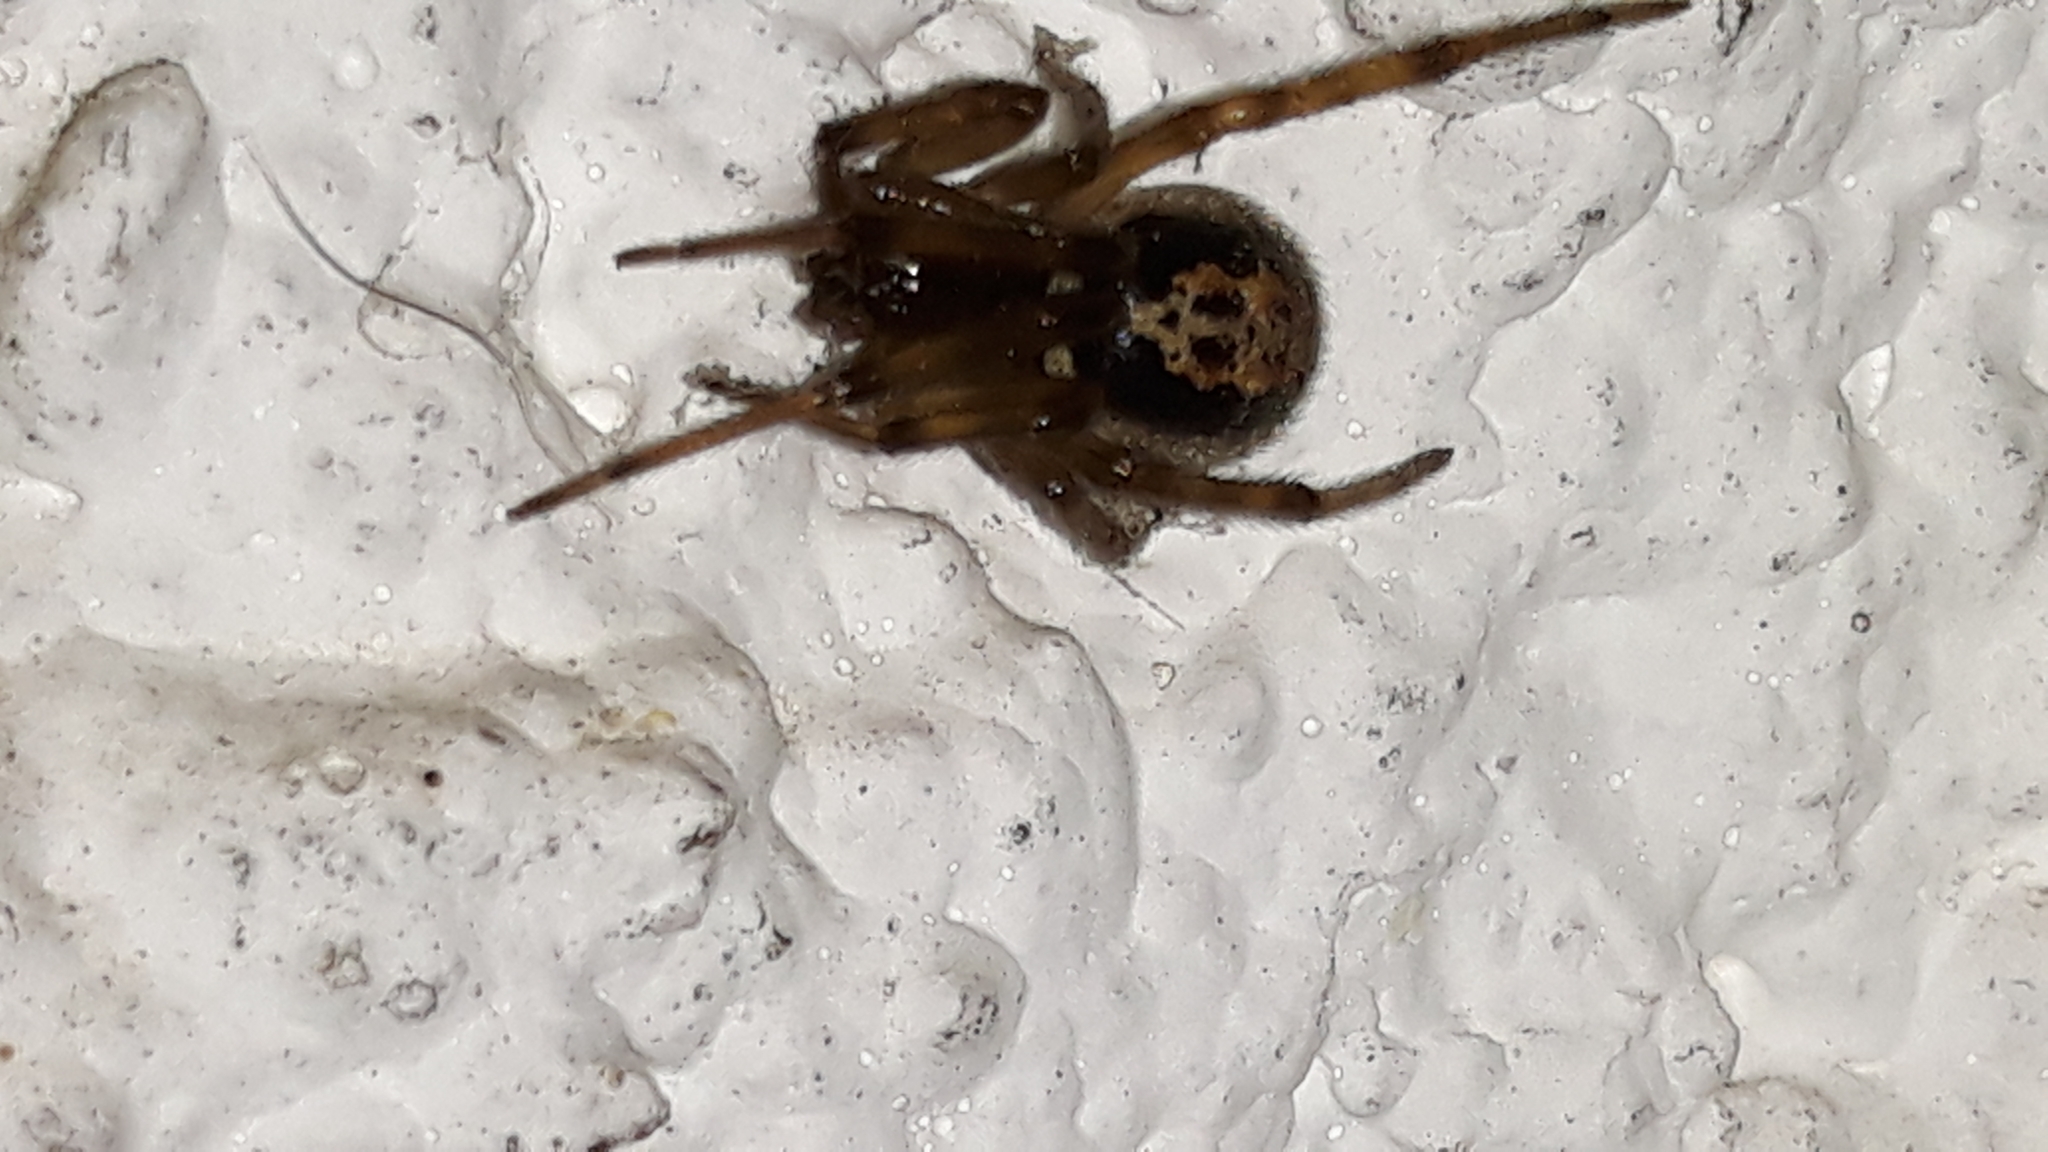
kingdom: Animalia
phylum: Arthropoda
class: Arachnida
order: Araneae
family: Theridiidae
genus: Steatoda
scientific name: Steatoda nobilis
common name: Cobweb weaver
